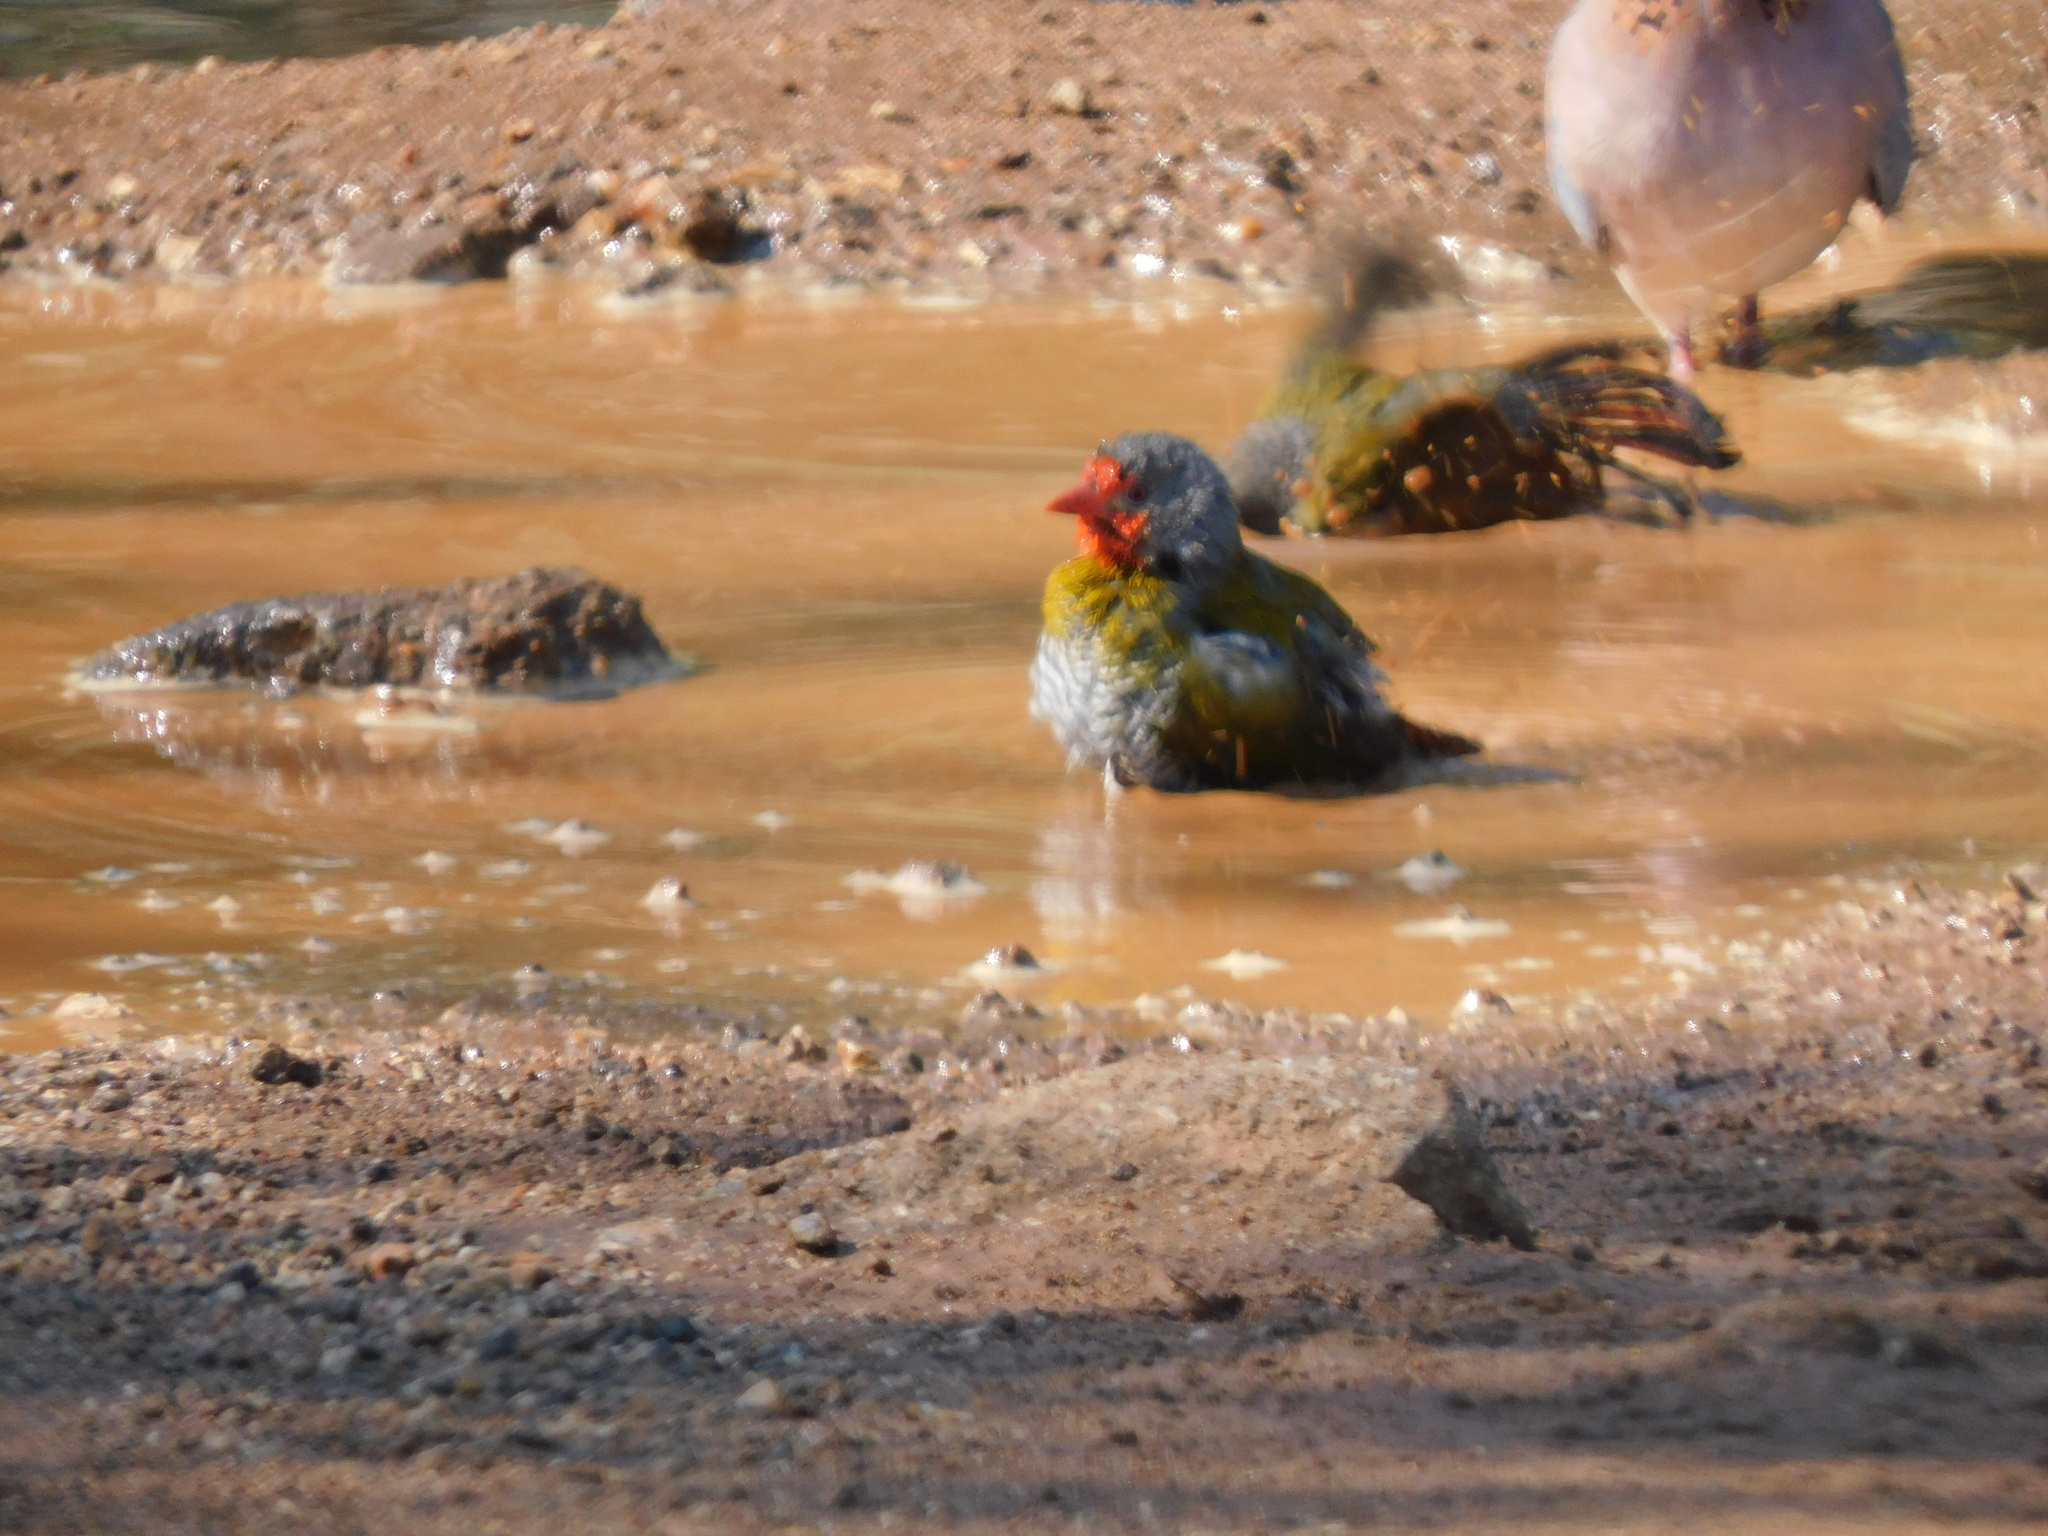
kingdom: Animalia
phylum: Chordata
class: Aves
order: Passeriformes
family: Estrildidae
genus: Pytilia
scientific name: Pytilia melba
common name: Green-winged pytilia
